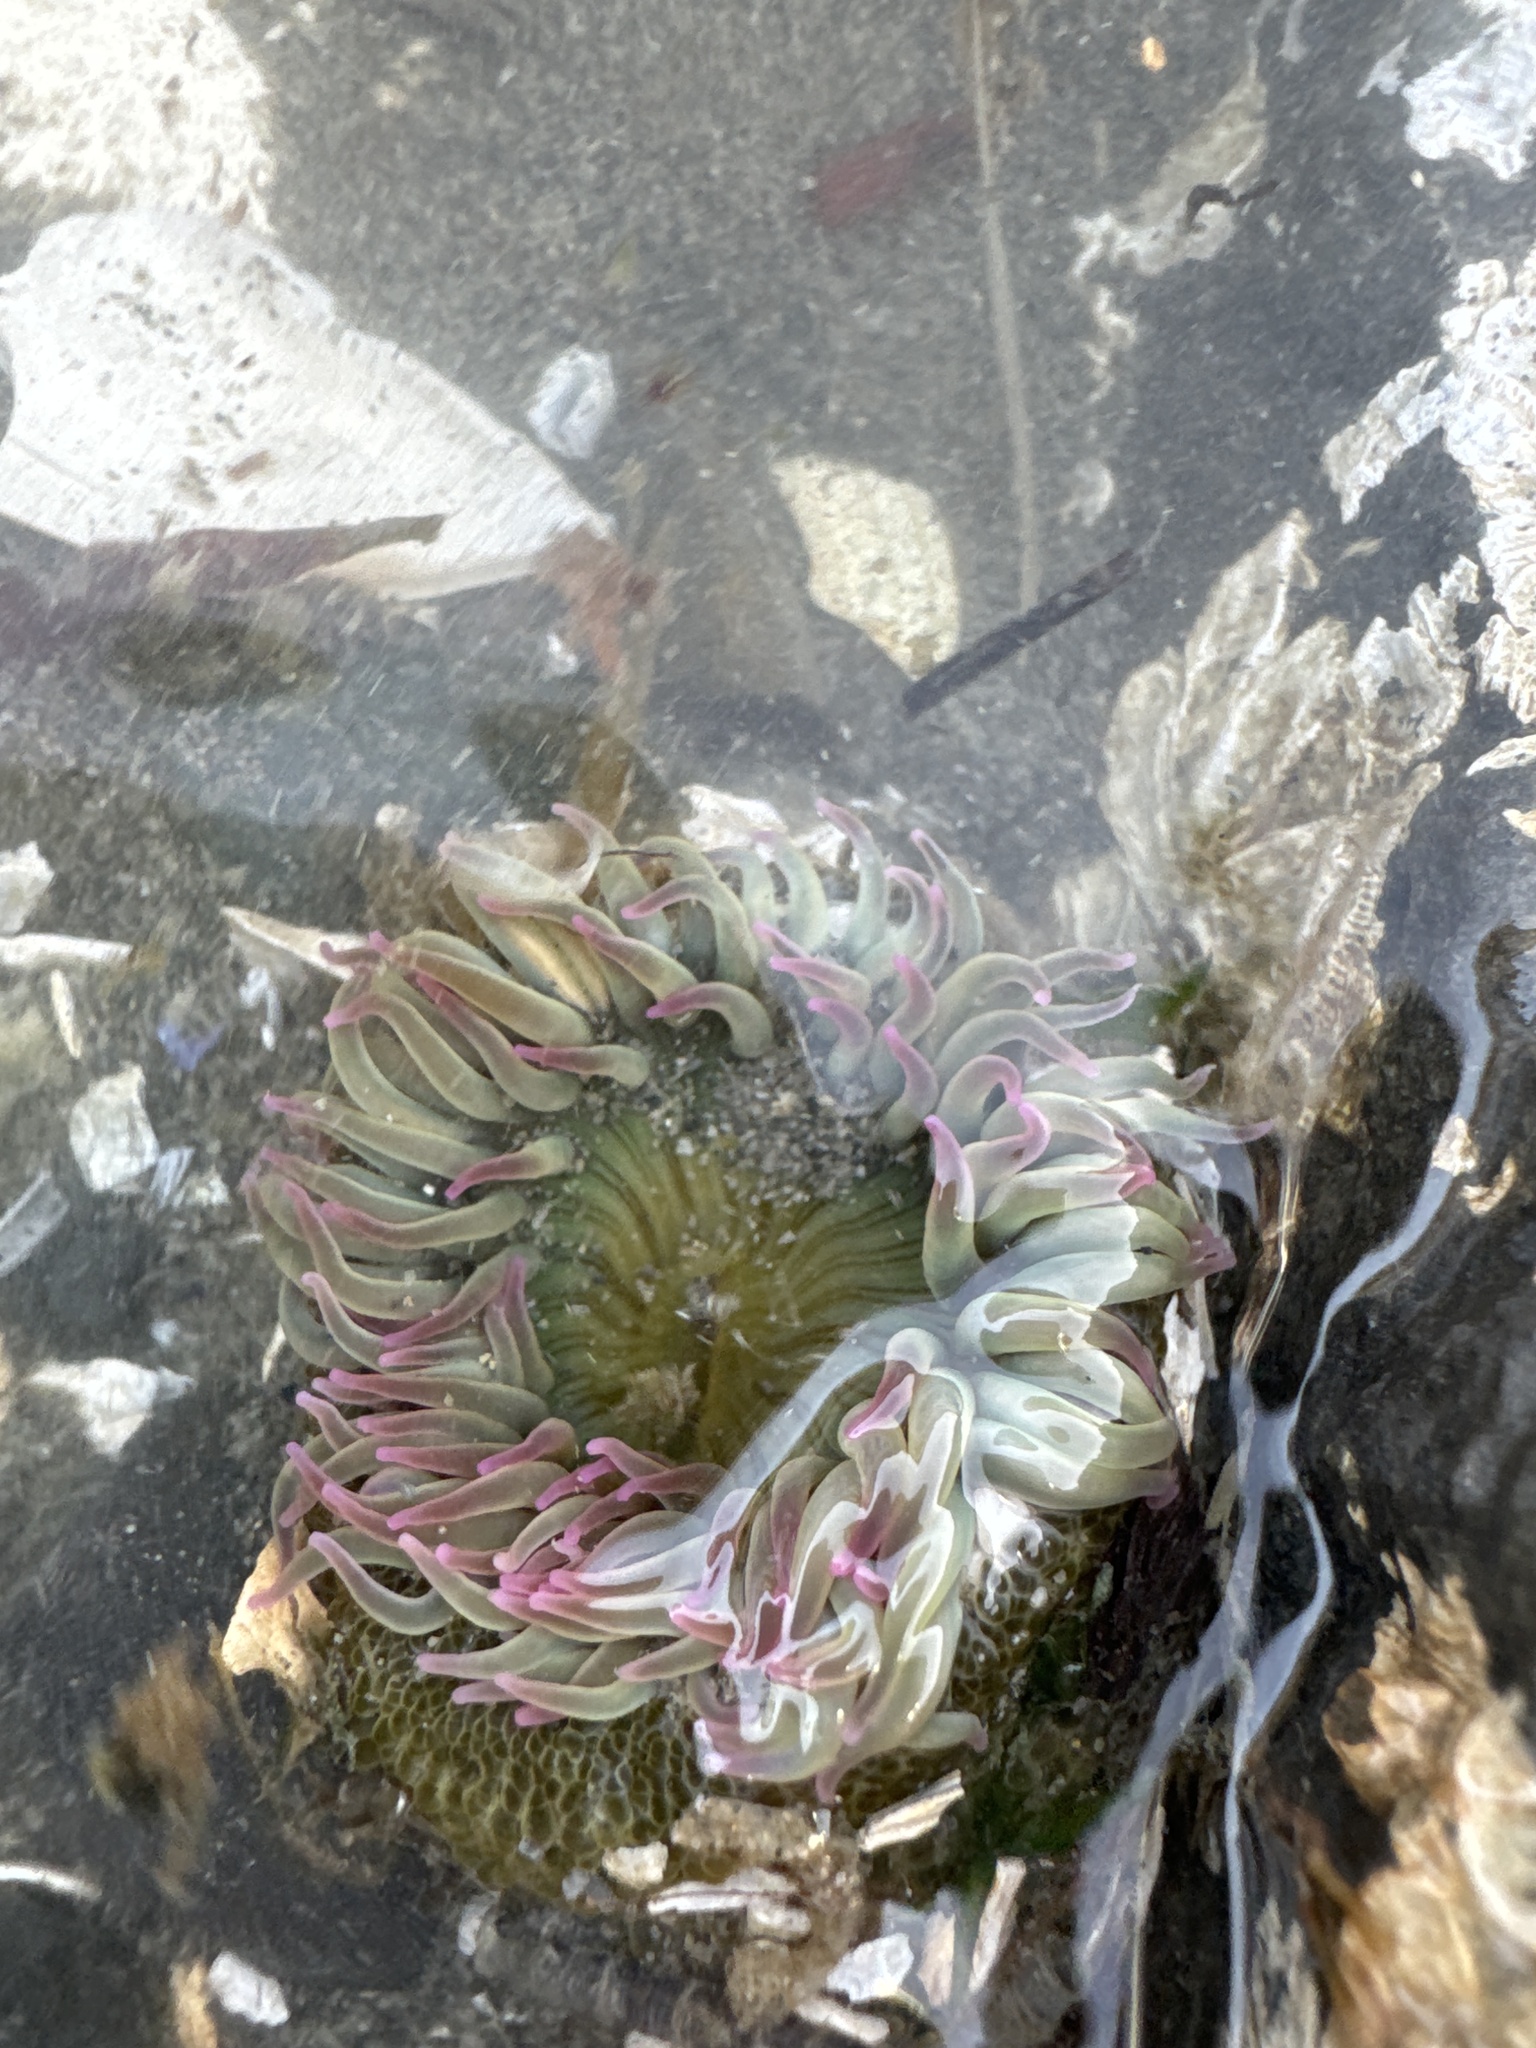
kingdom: Animalia
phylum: Cnidaria
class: Anthozoa
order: Actiniaria
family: Actiniidae
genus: Anthopleura
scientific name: Anthopleura elegantissima
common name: Clonal anemone
